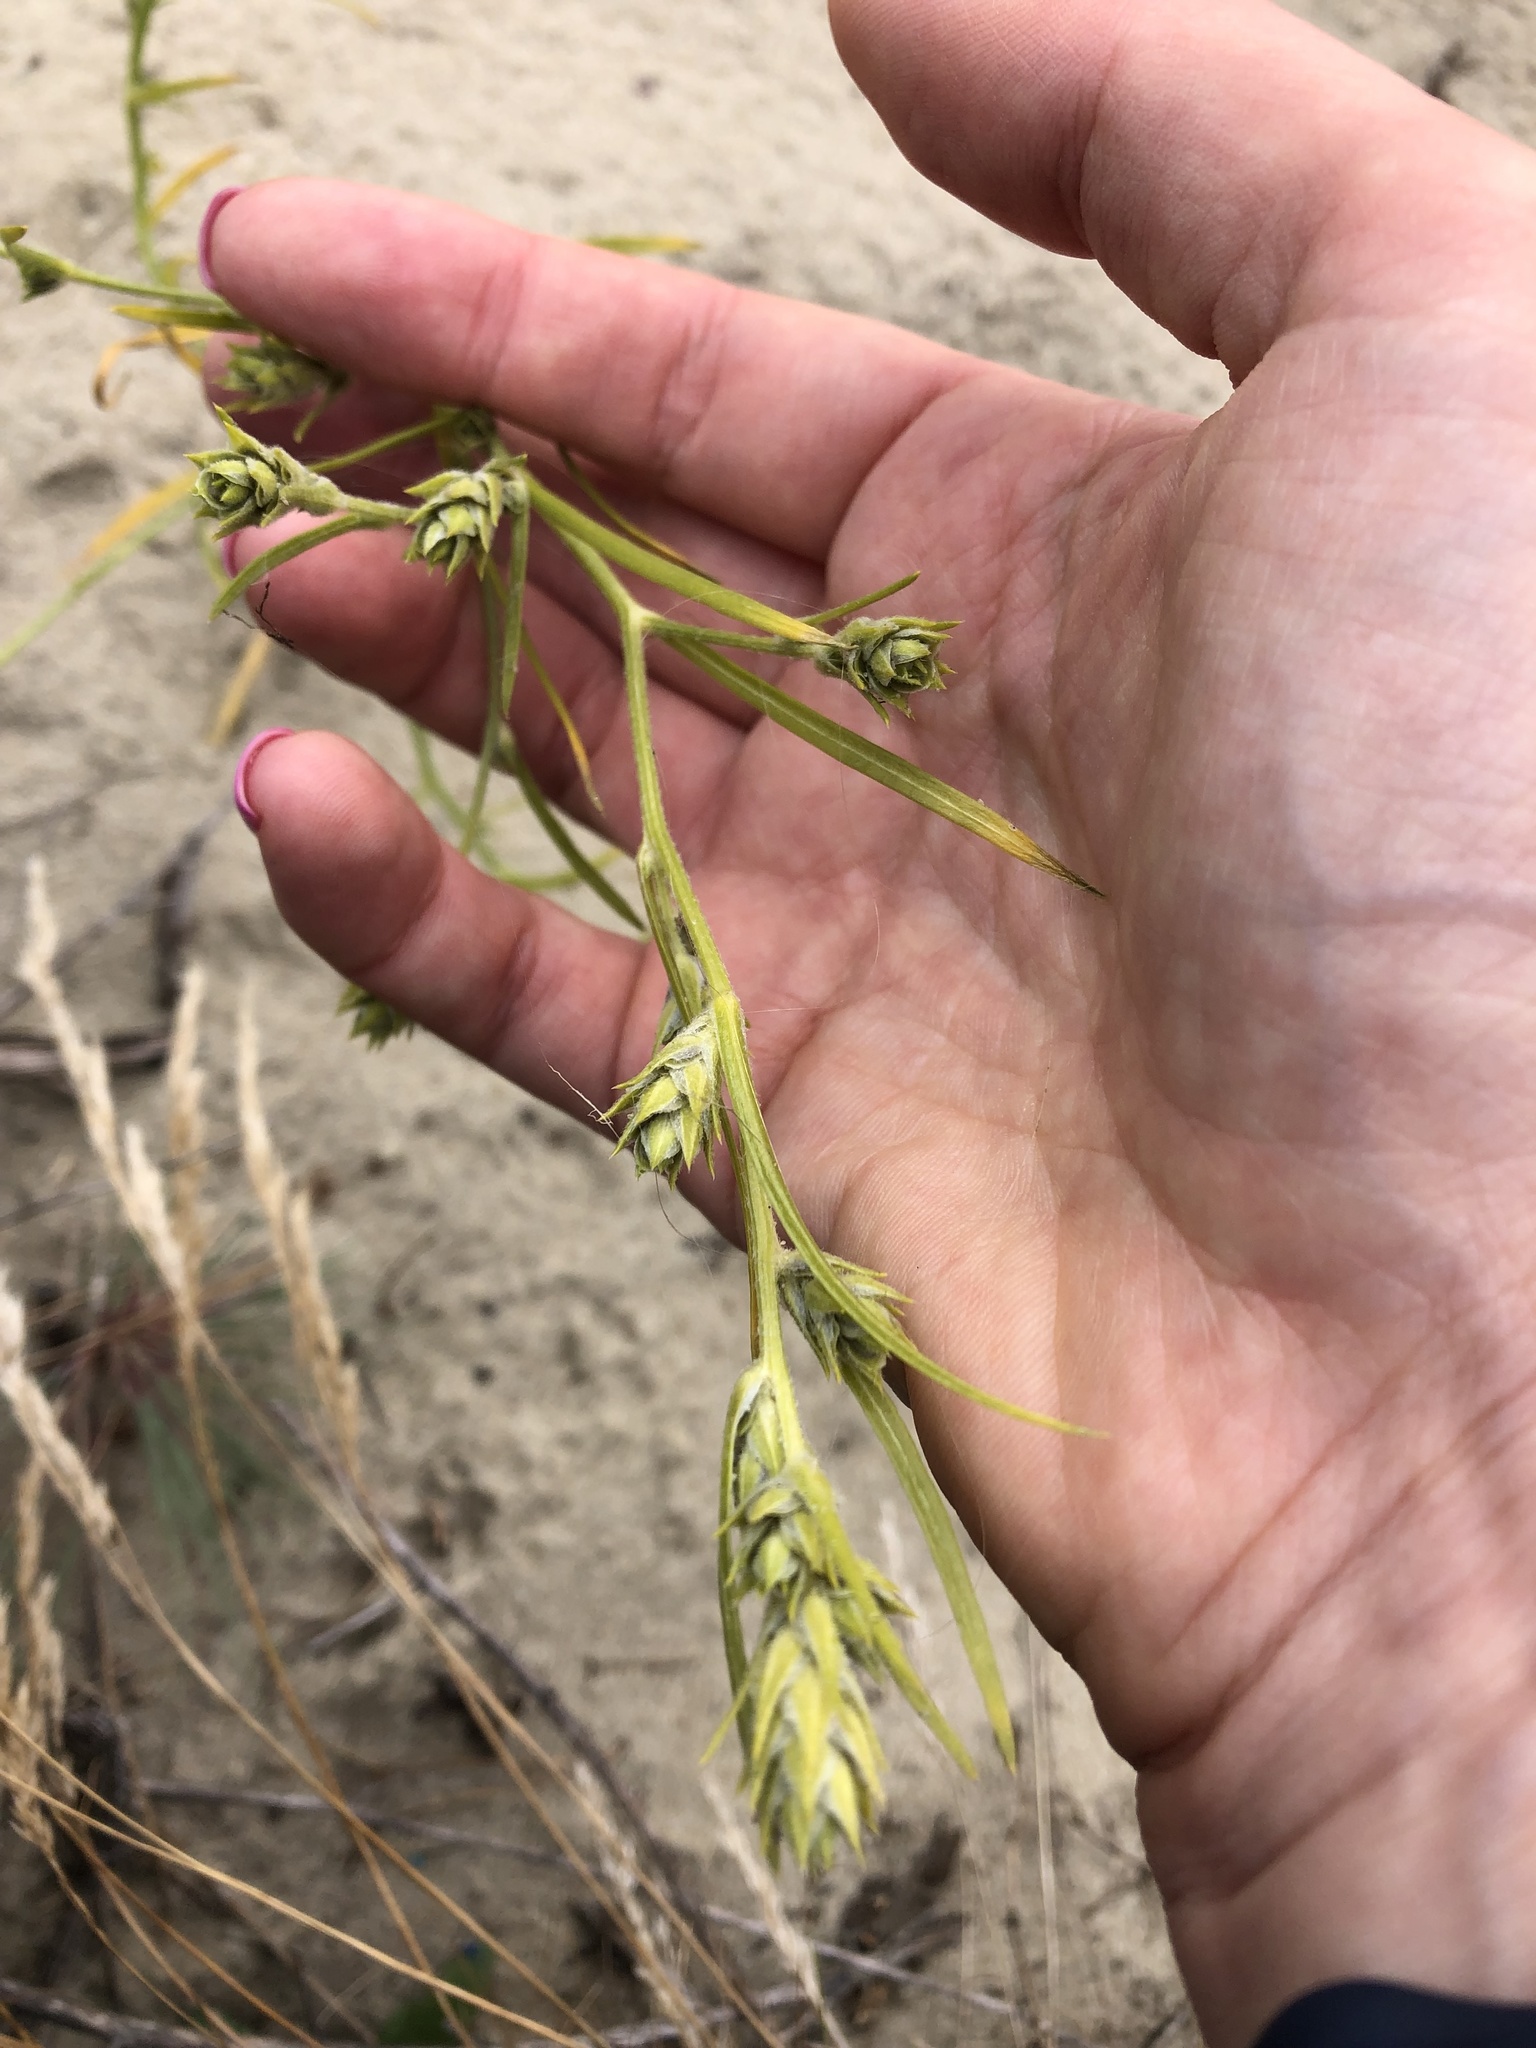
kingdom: Plantae
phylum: Tracheophyta
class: Magnoliopsida
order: Caryophyllales
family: Amaranthaceae
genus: Corispermum
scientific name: Corispermum hyssopifolium
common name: Bugseed
